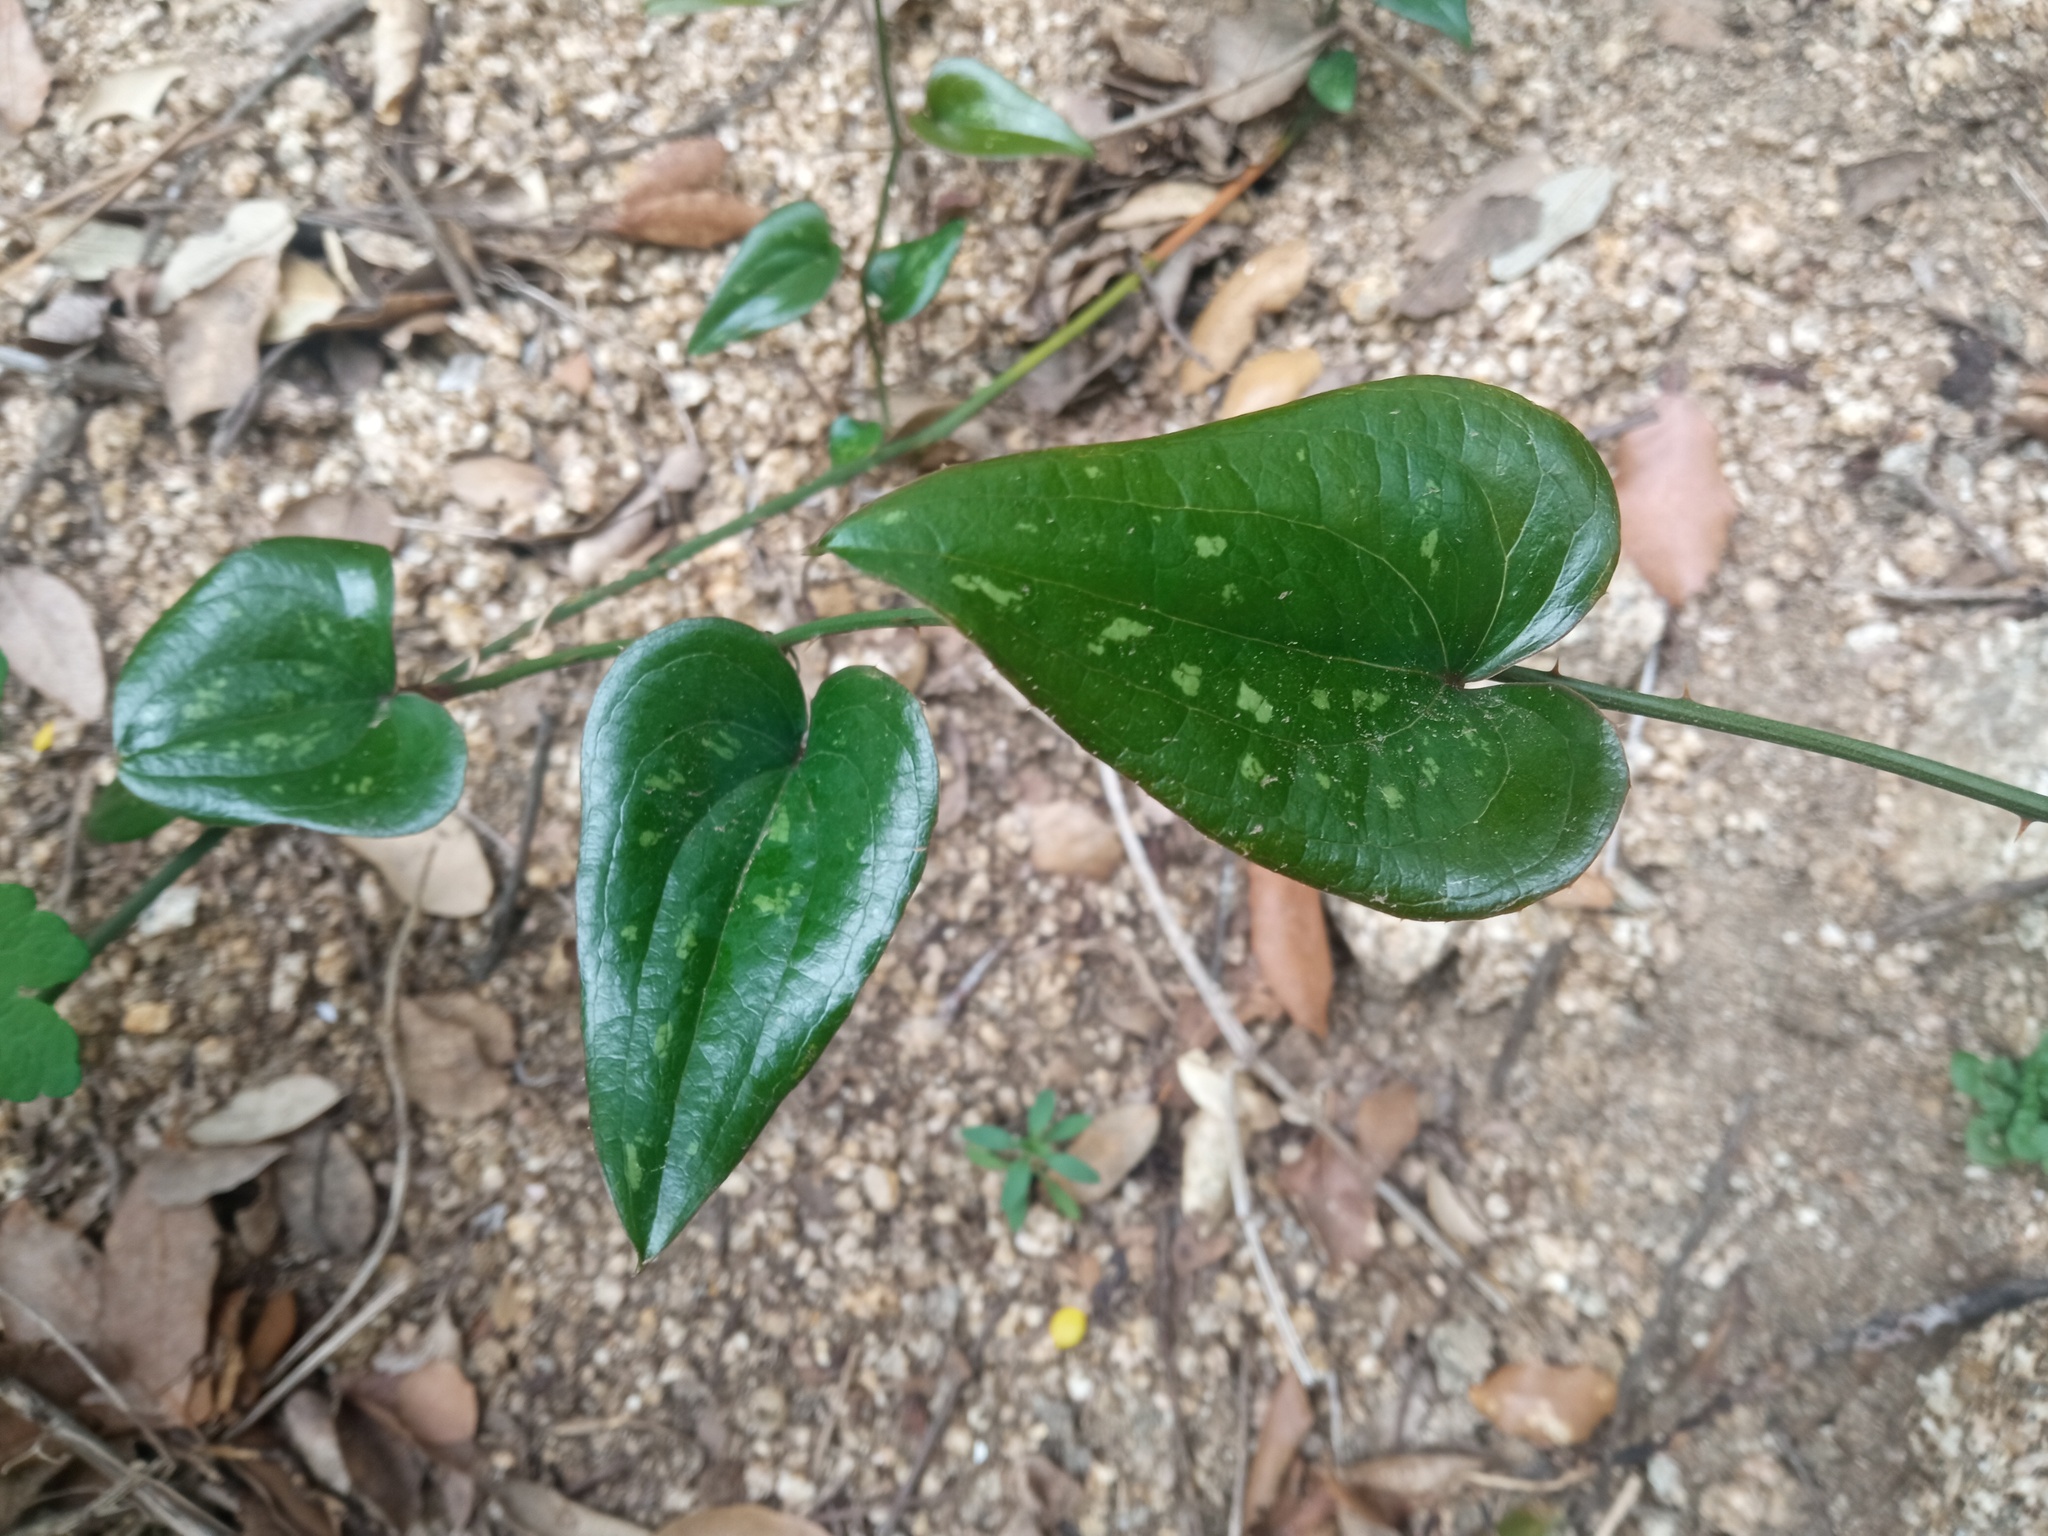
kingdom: Plantae
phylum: Tracheophyta
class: Liliopsida
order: Liliales
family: Smilacaceae
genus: Smilax
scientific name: Smilax aspera
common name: Common smilax
